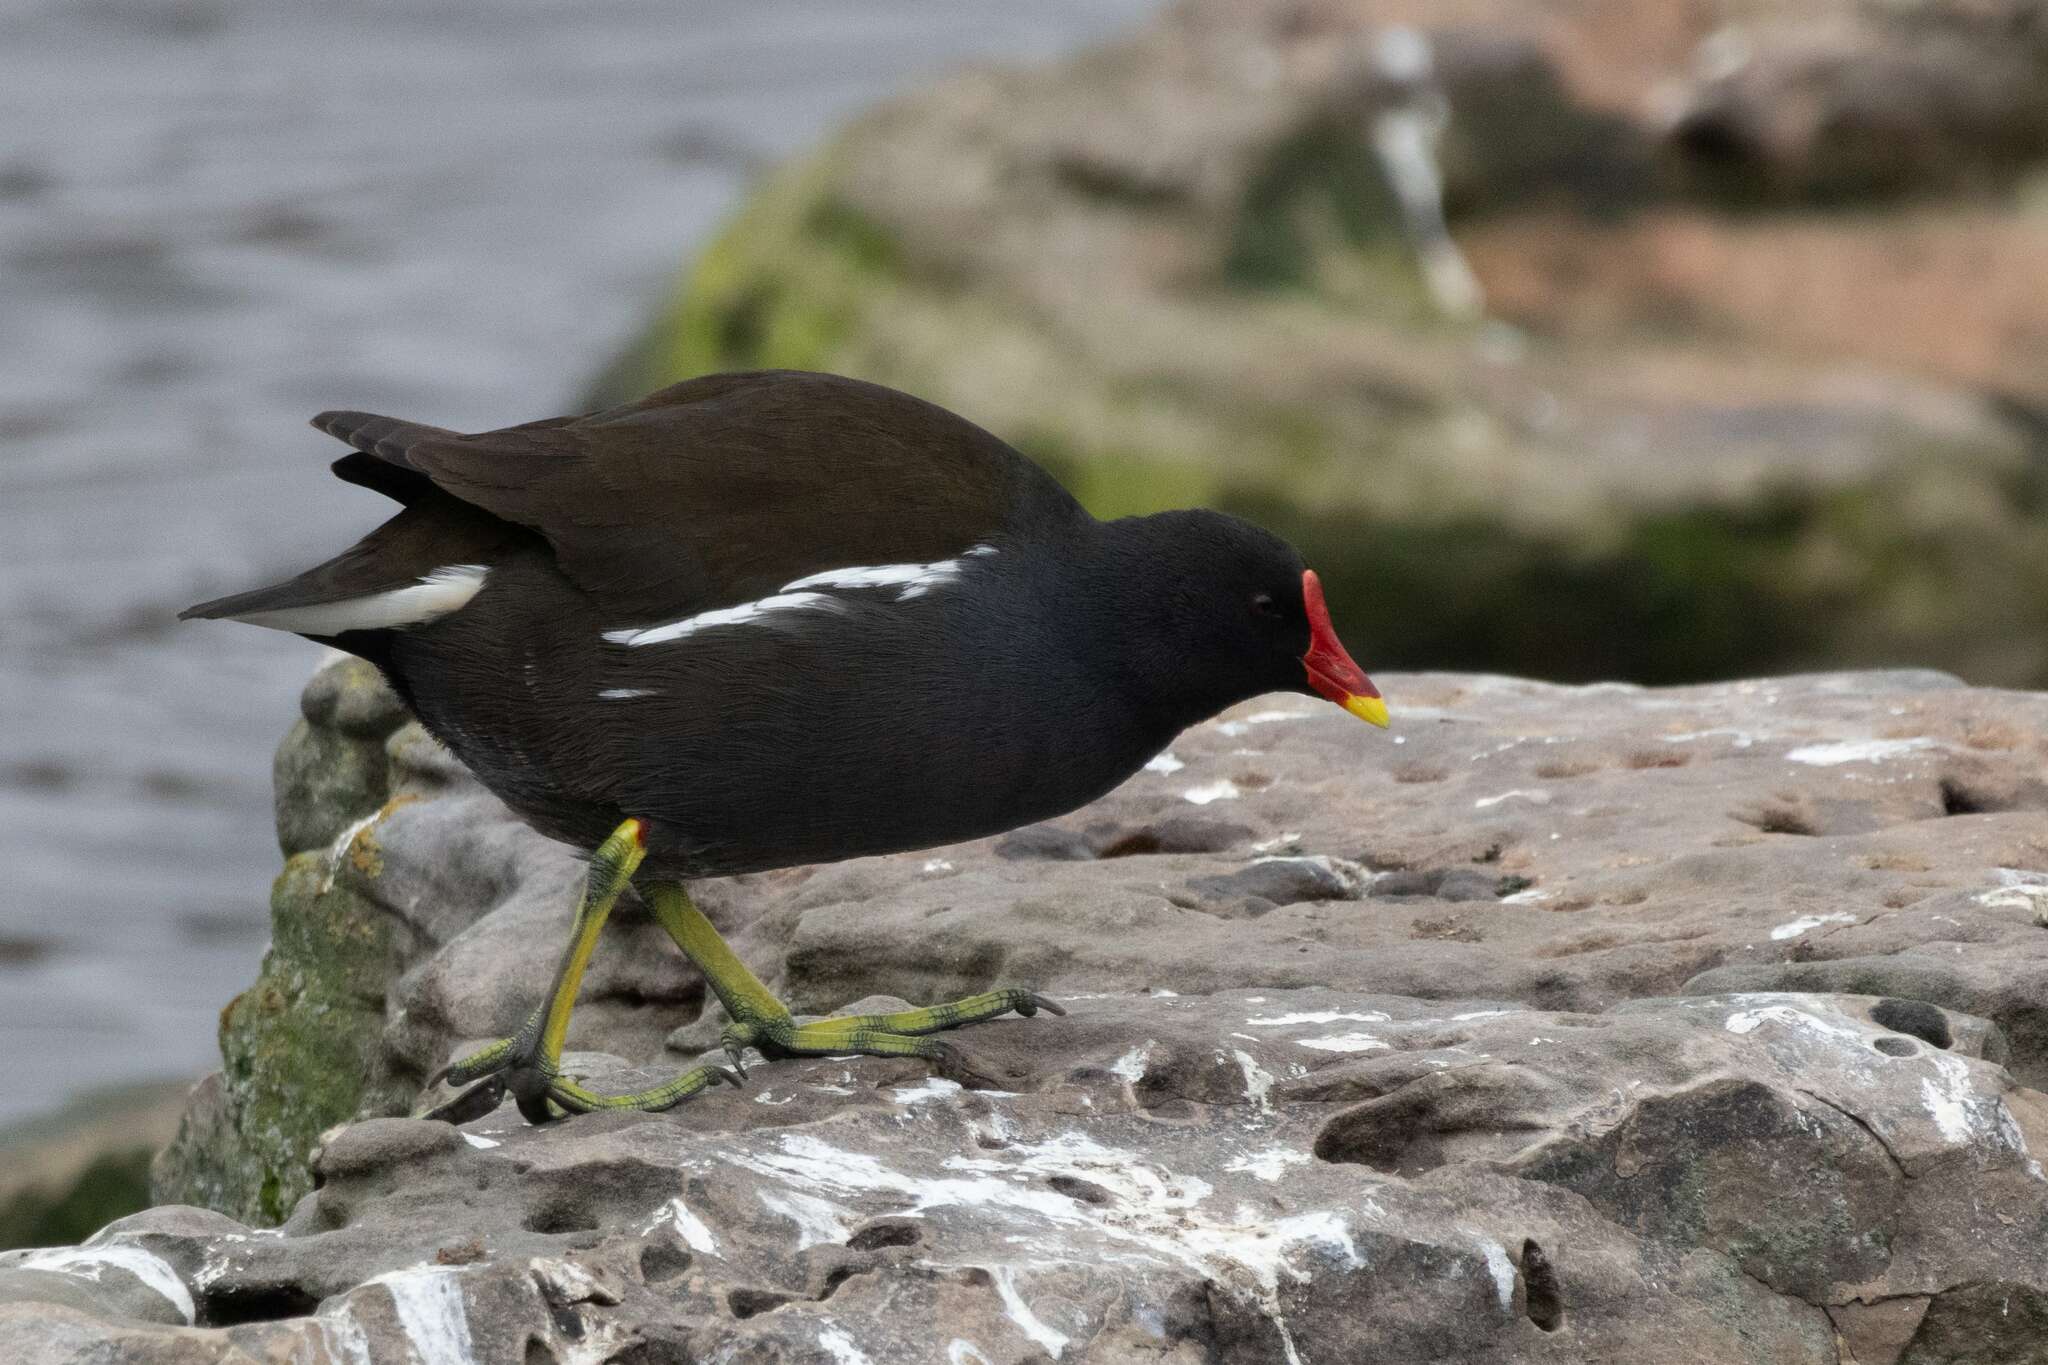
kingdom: Animalia
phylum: Chordata
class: Aves
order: Gruiformes
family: Rallidae
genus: Gallinula
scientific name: Gallinula chloropus
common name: Common moorhen
